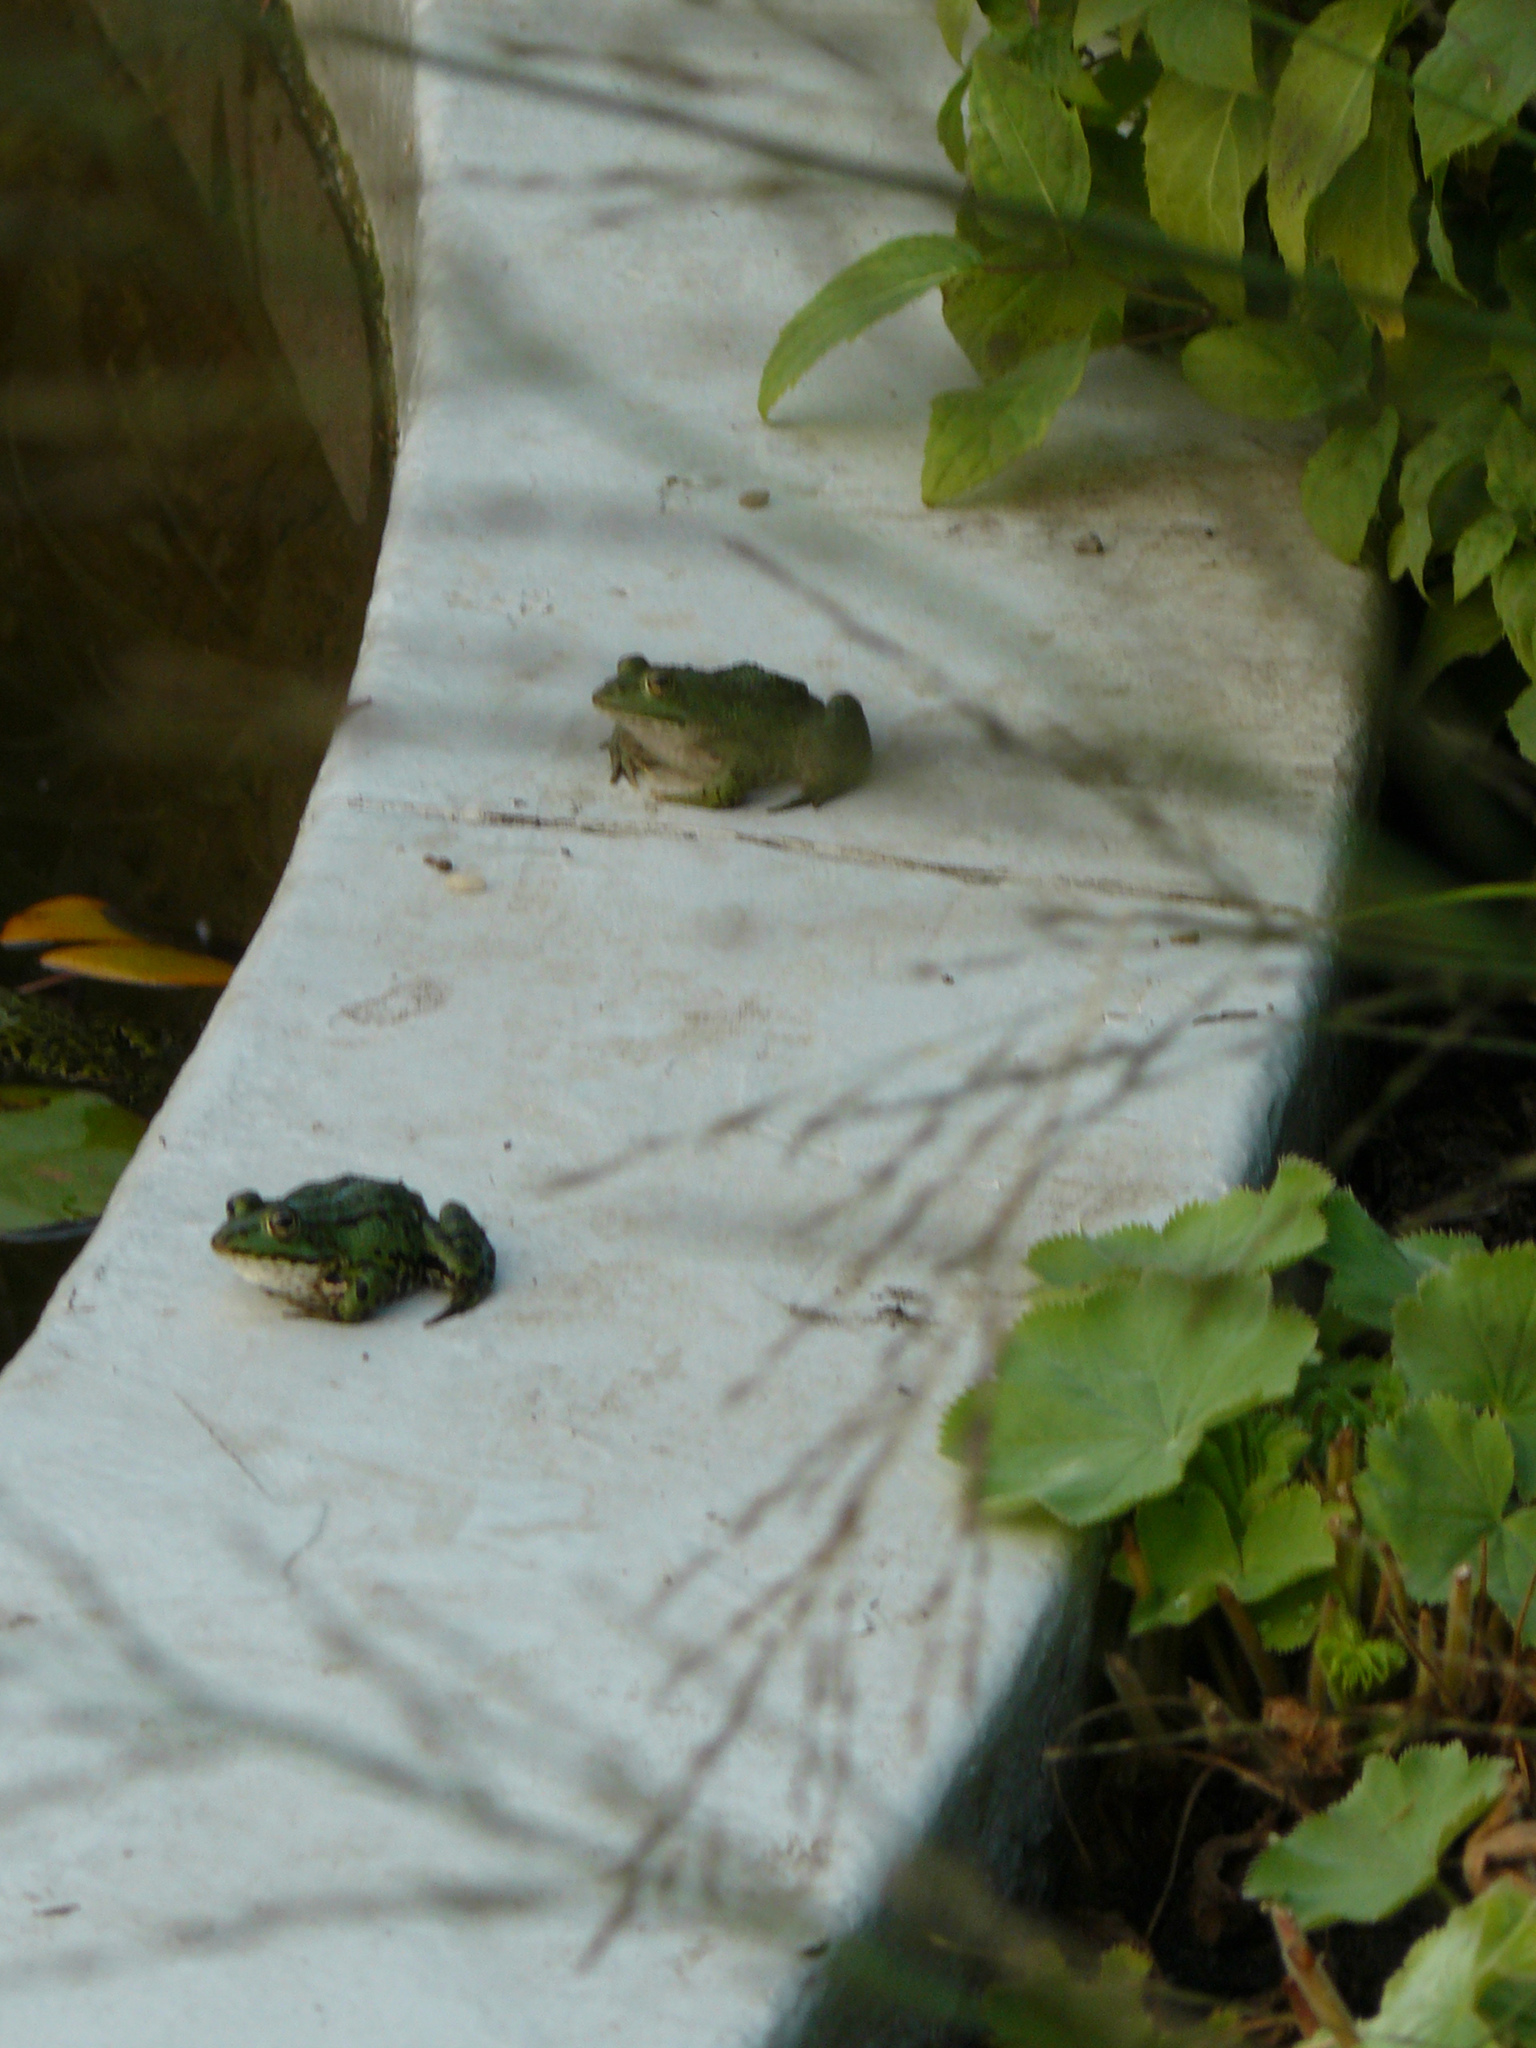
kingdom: Animalia
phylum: Chordata
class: Amphibia
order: Anura
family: Ranidae
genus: Pelophylax
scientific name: Pelophylax
